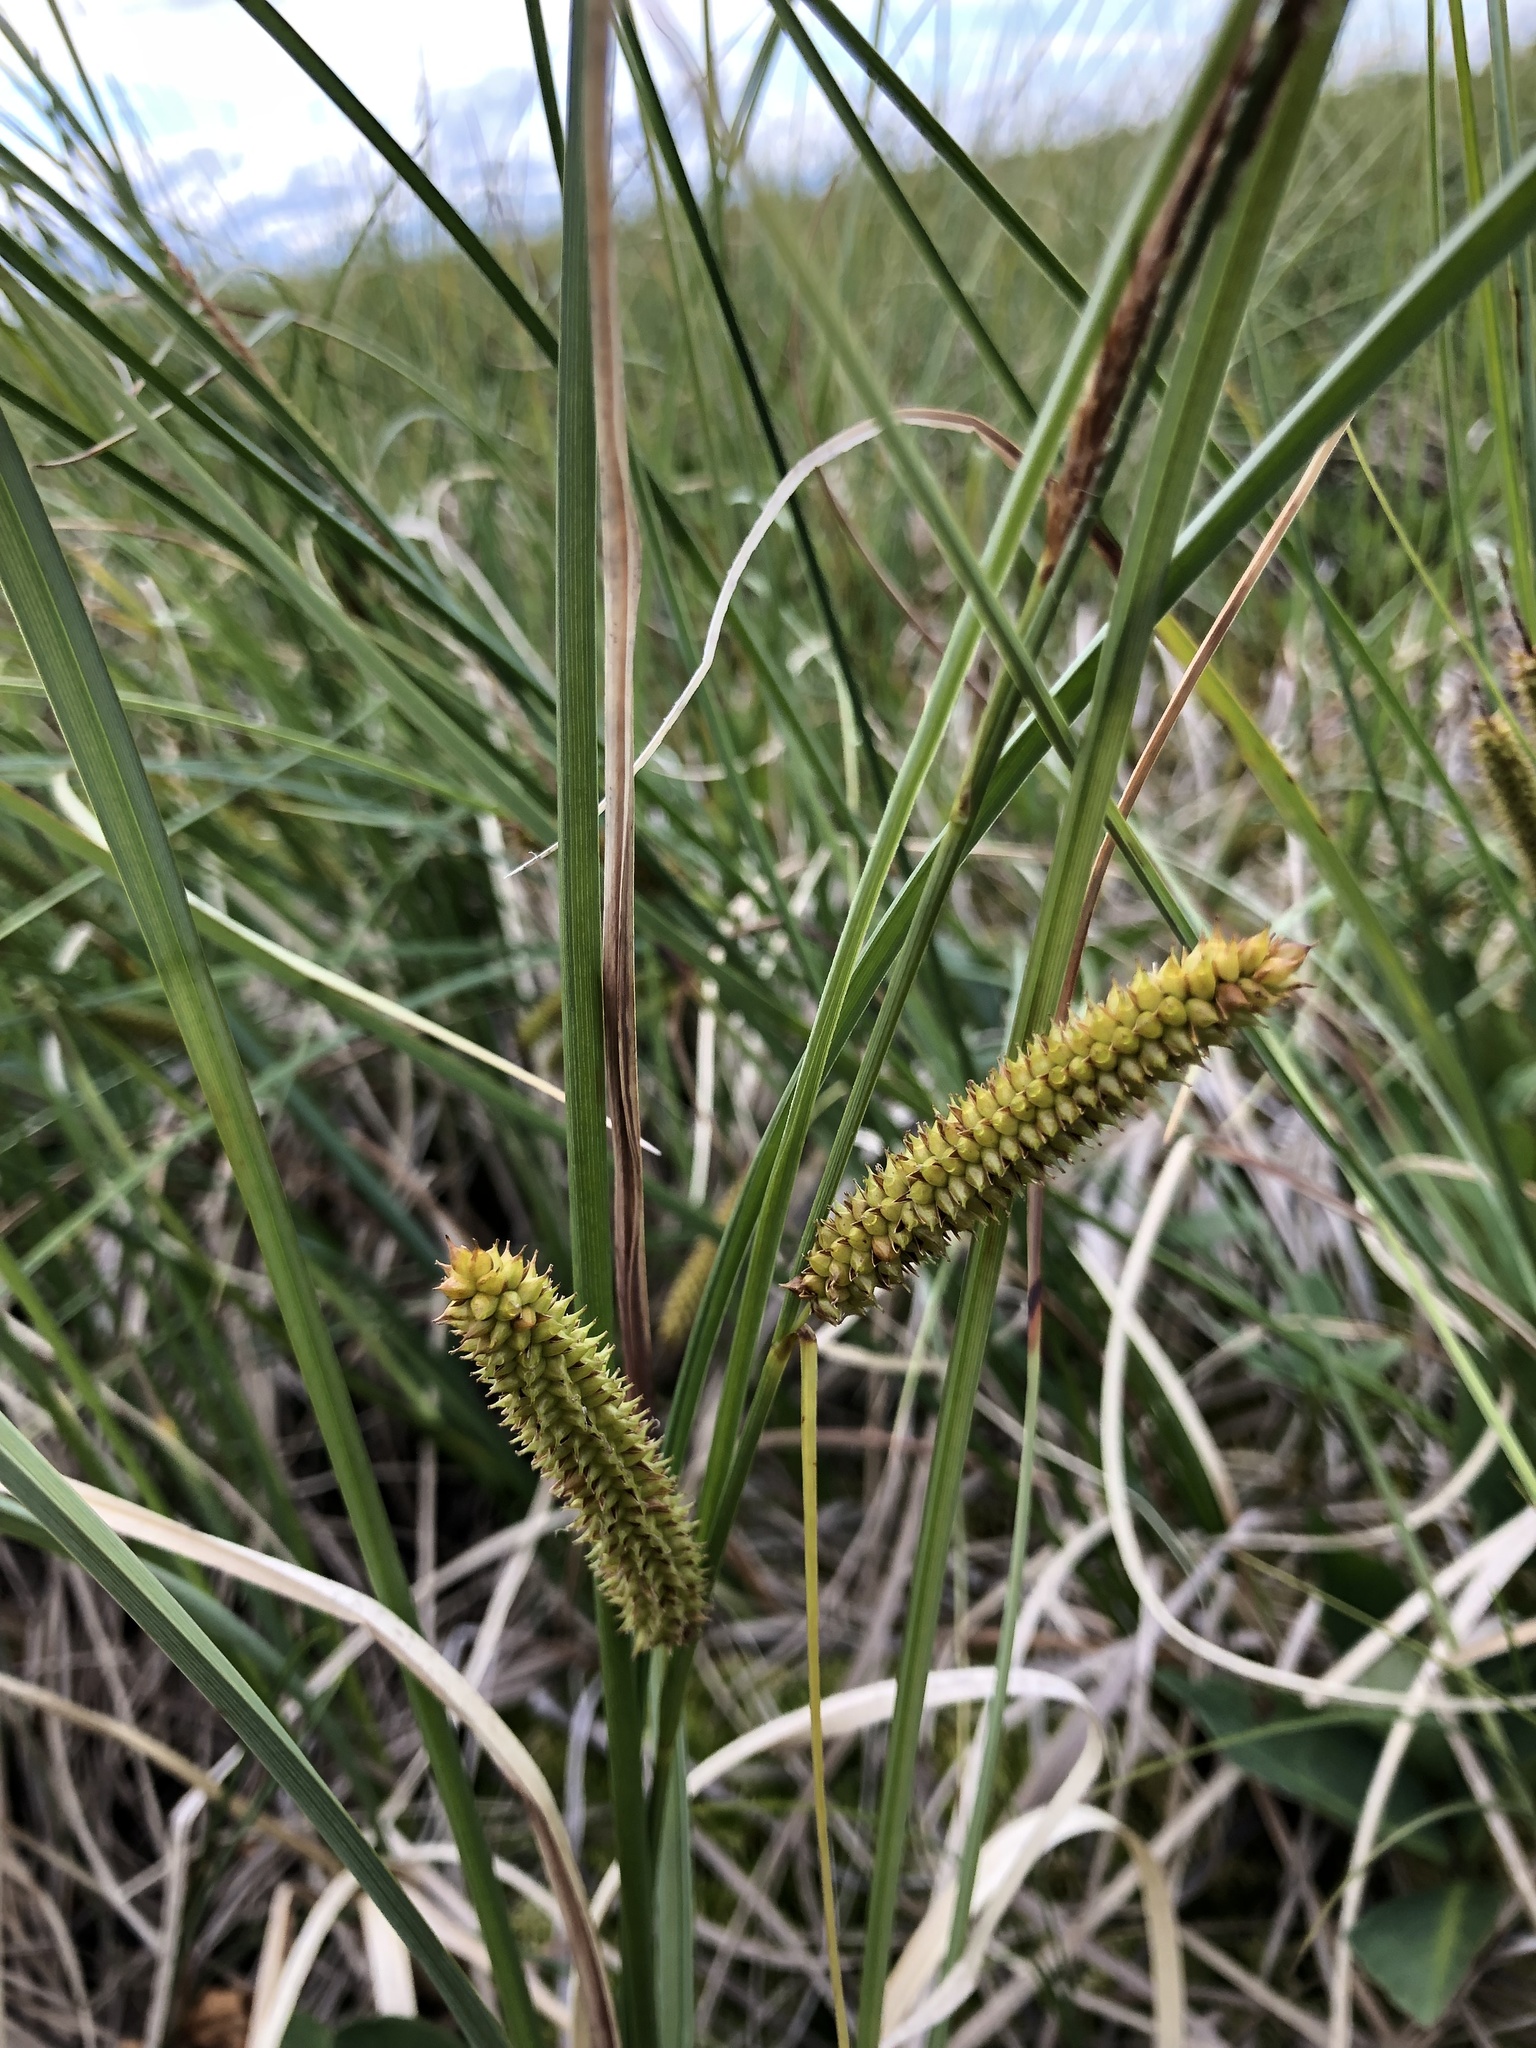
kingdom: Plantae
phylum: Tracheophyta
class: Liliopsida
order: Poales
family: Cyperaceae
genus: Carex
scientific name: Carex rostrata
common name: Bottle sedge
